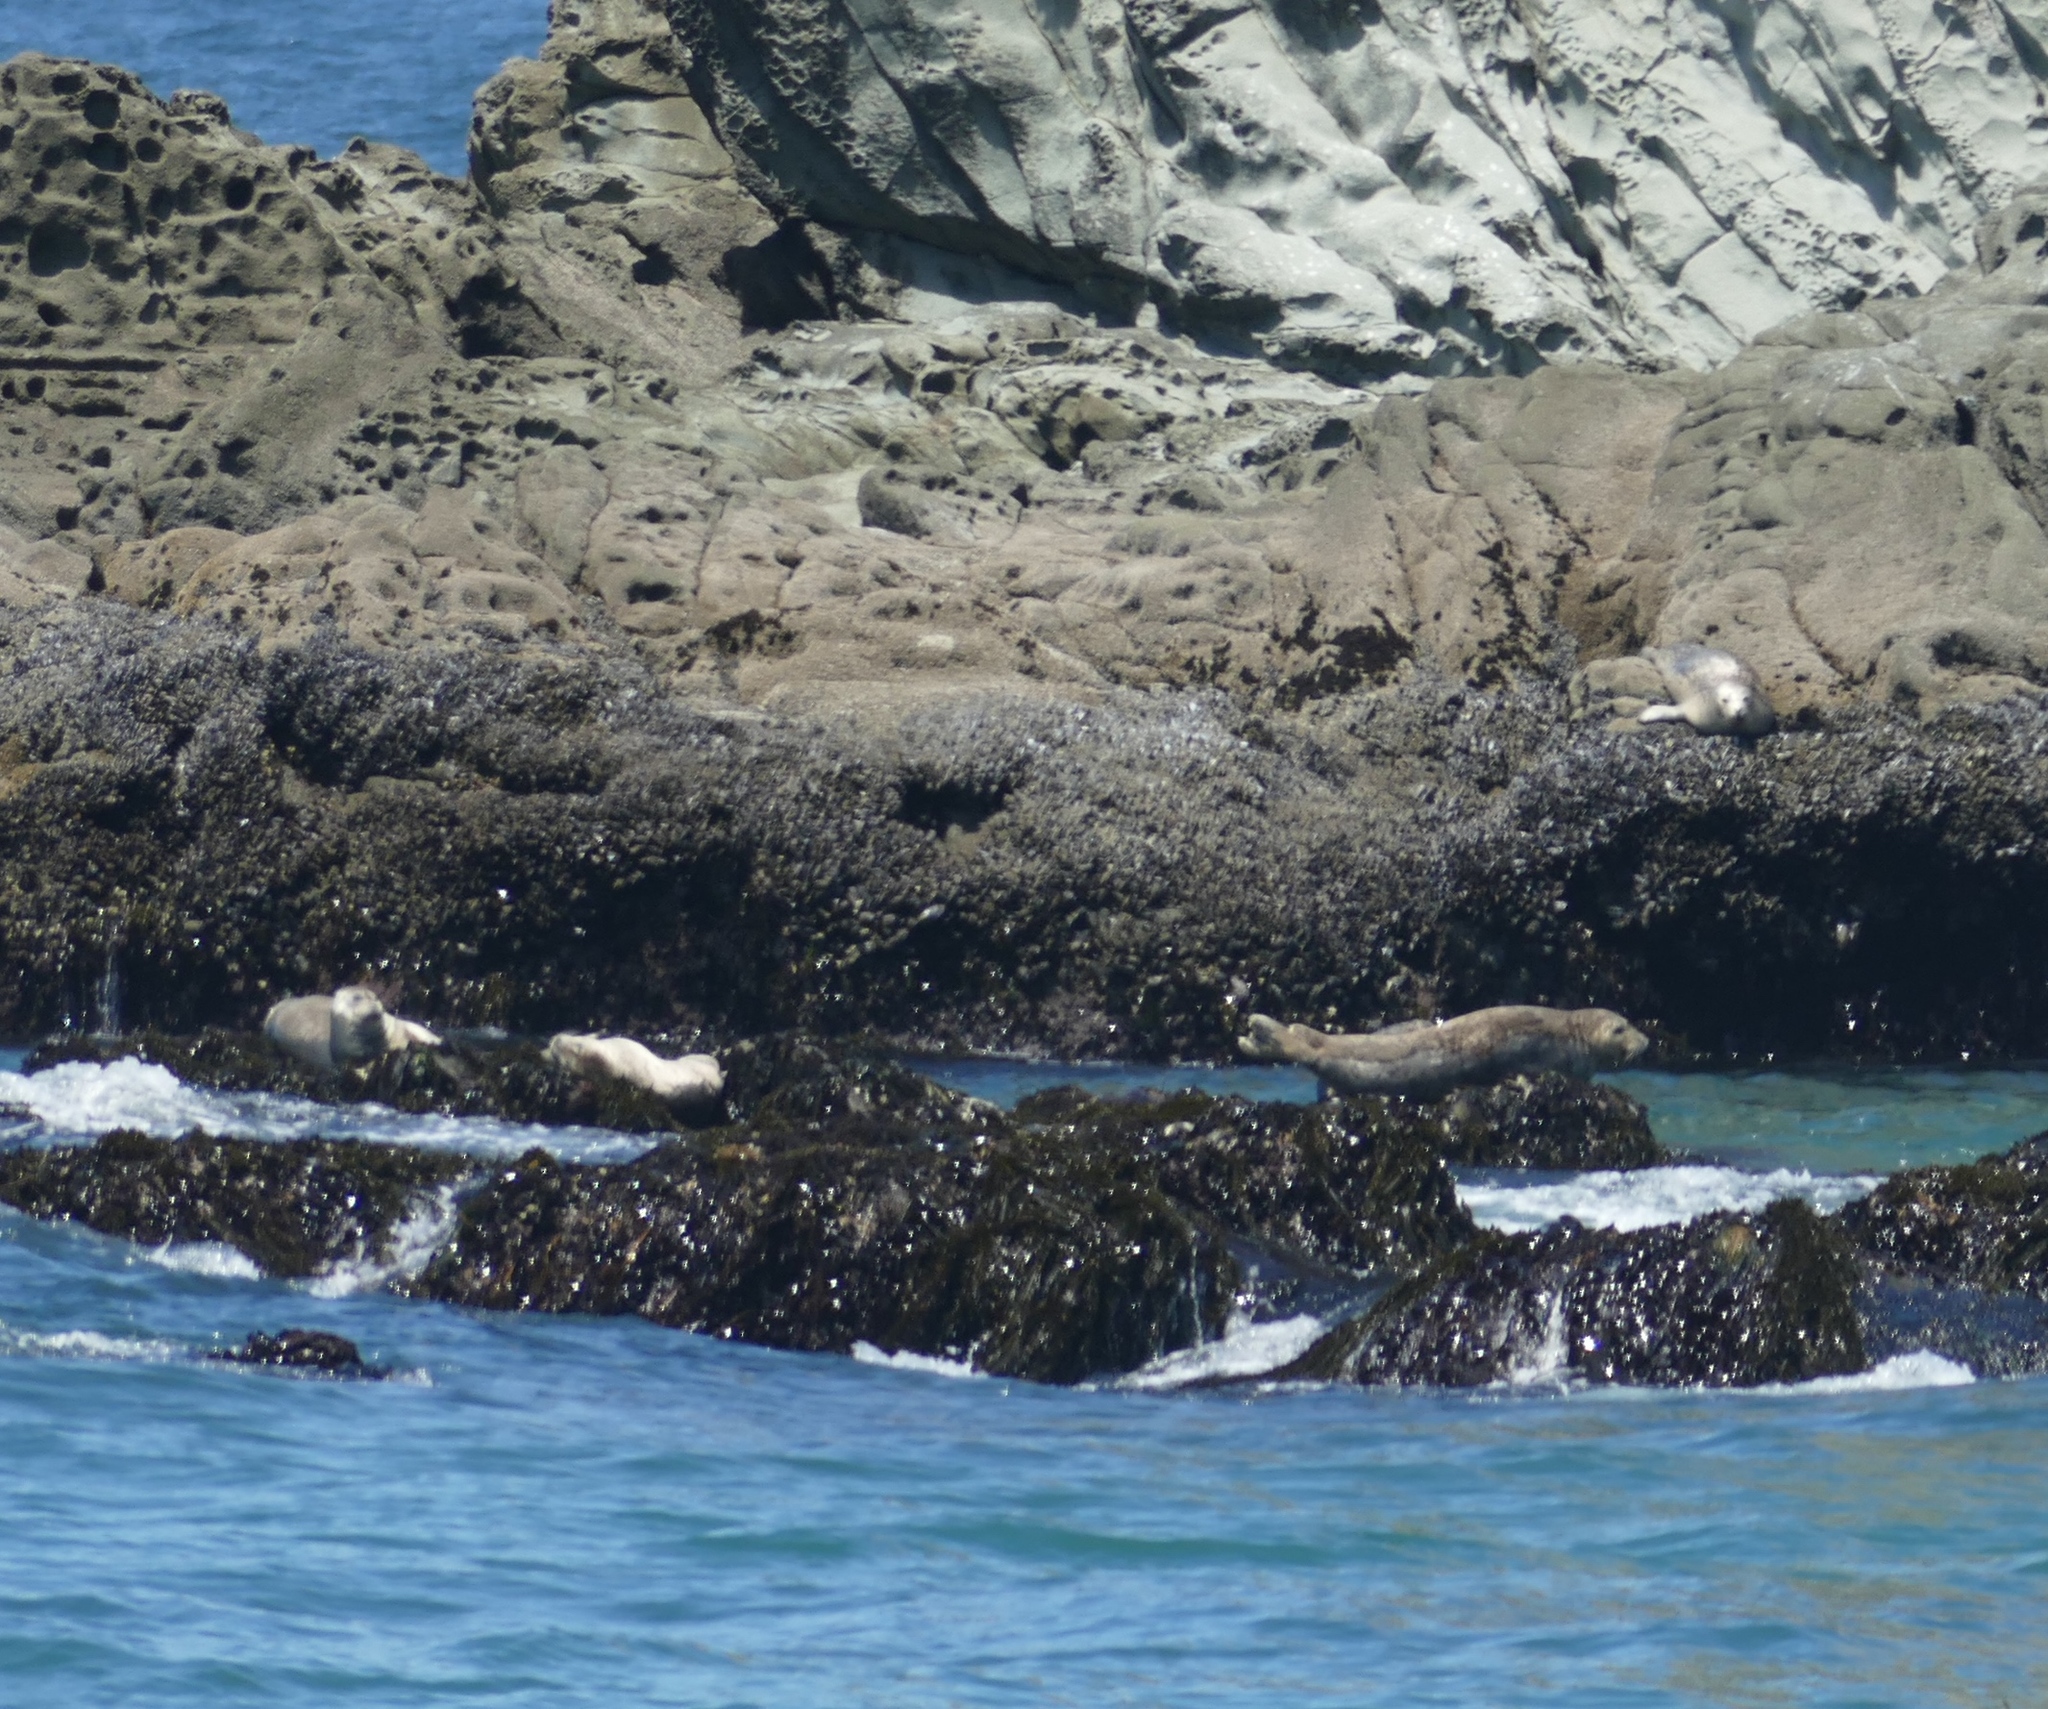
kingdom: Animalia
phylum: Chordata
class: Mammalia
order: Carnivora
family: Phocidae
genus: Phoca
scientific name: Phoca vitulina
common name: Harbor seal
